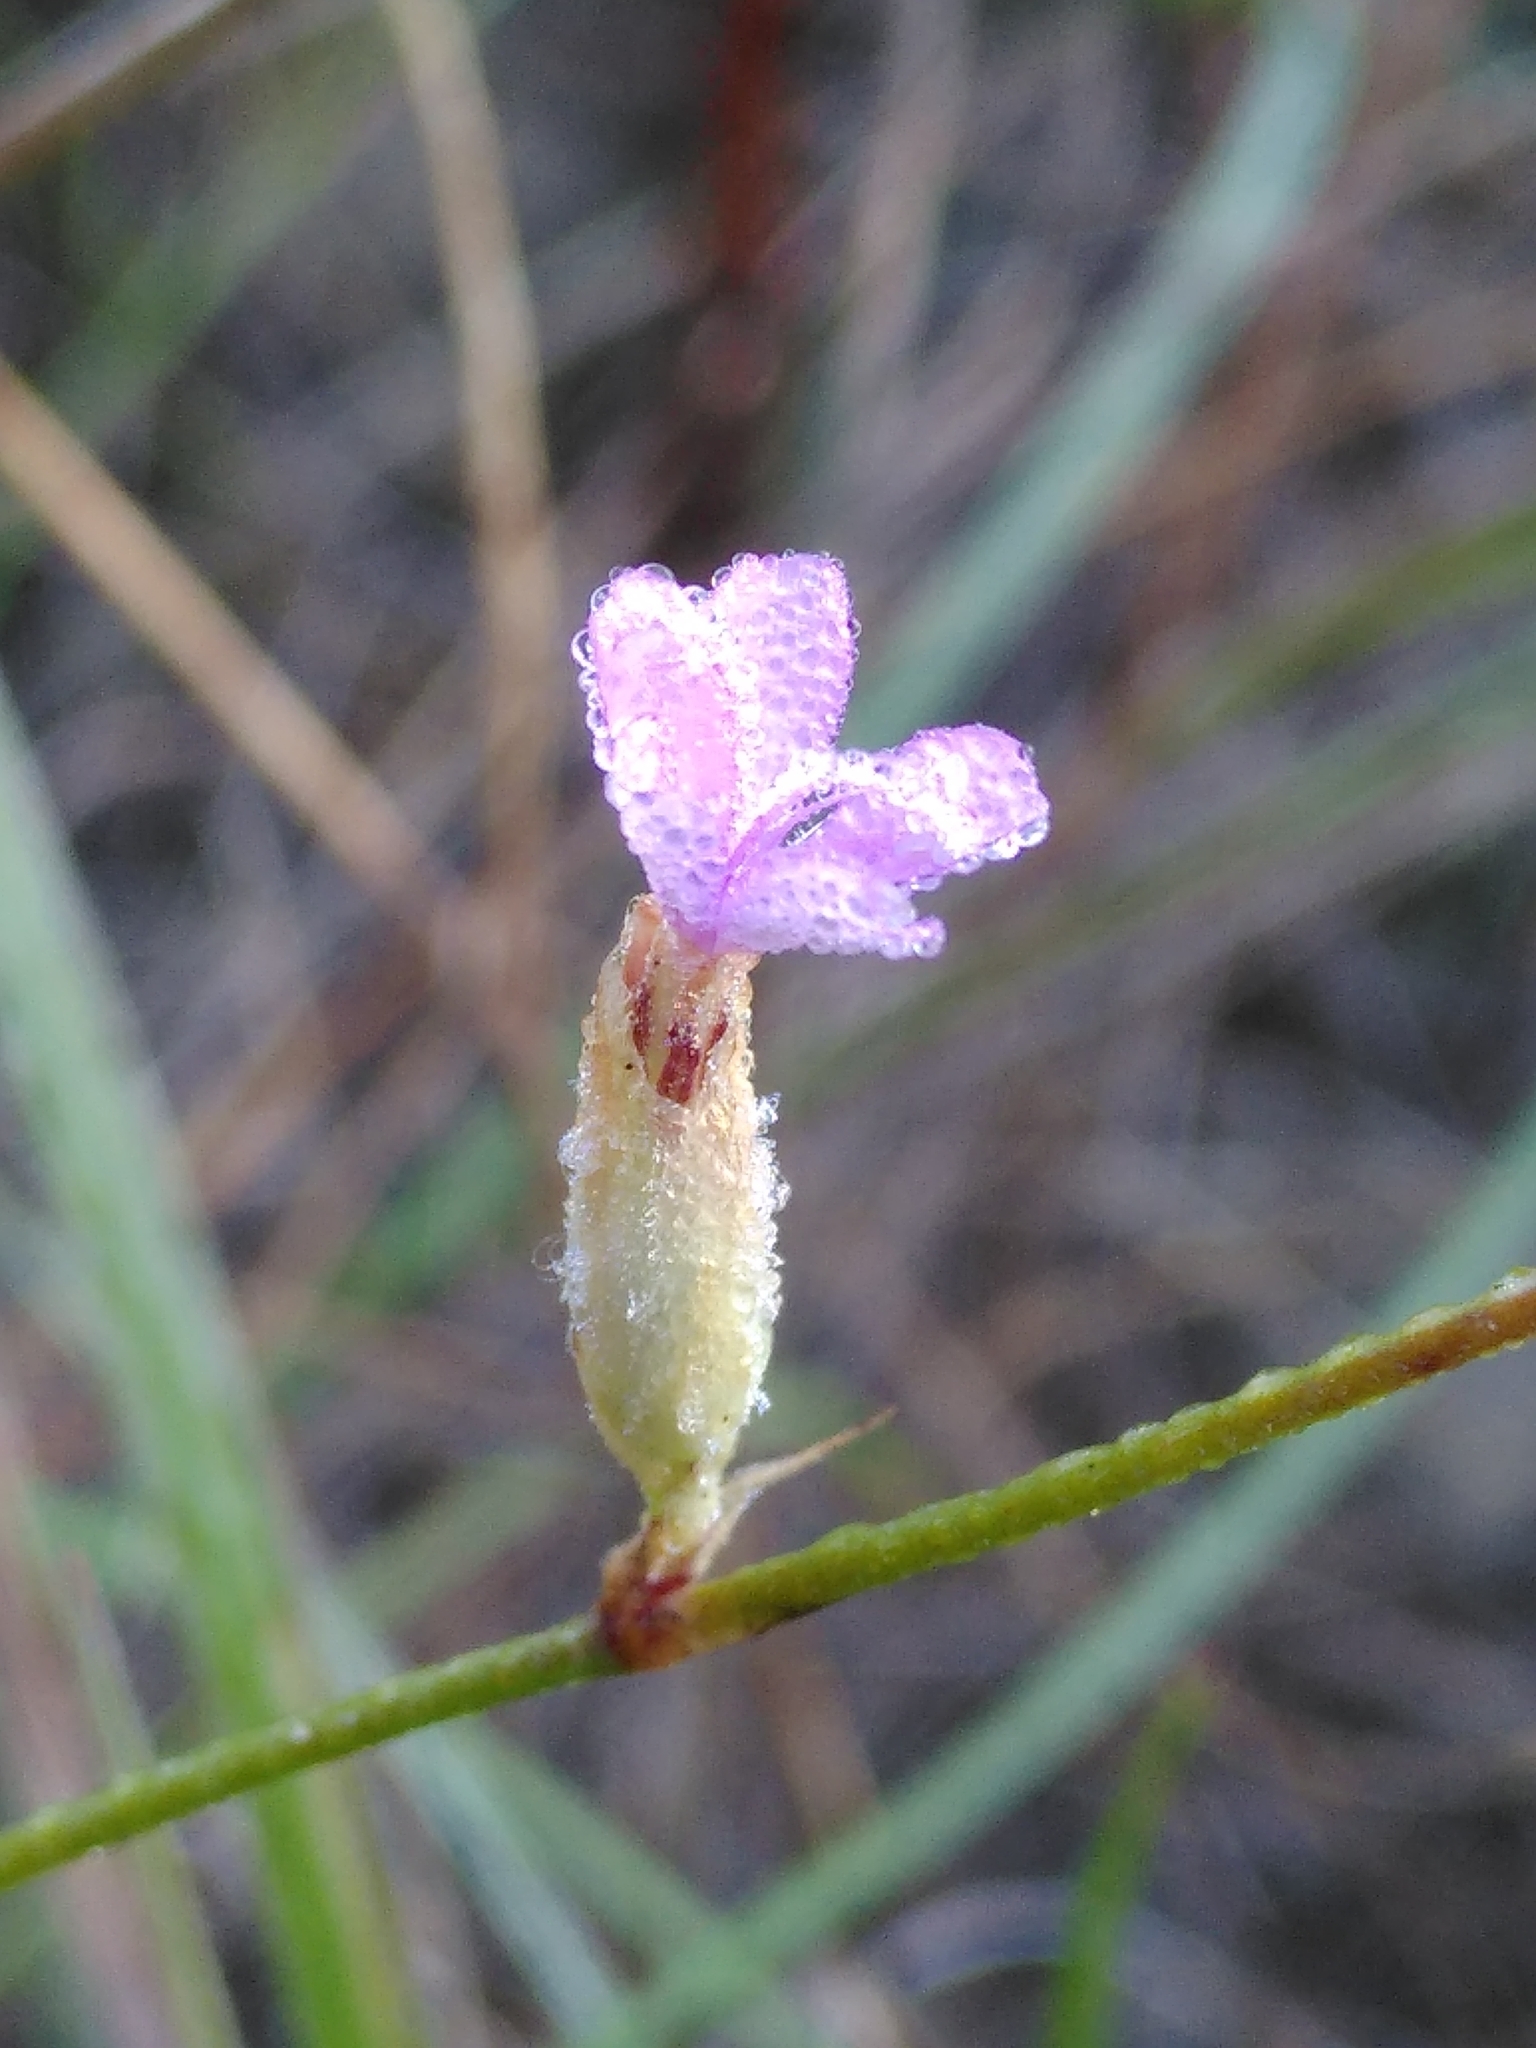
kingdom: Plantae
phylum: Tracheophyta
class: Magnoliopsida
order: Caryophyllales
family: Caryophyllaceae
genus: Petrorhagia
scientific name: Petrorhagia prolifera
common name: Proliferous pink
